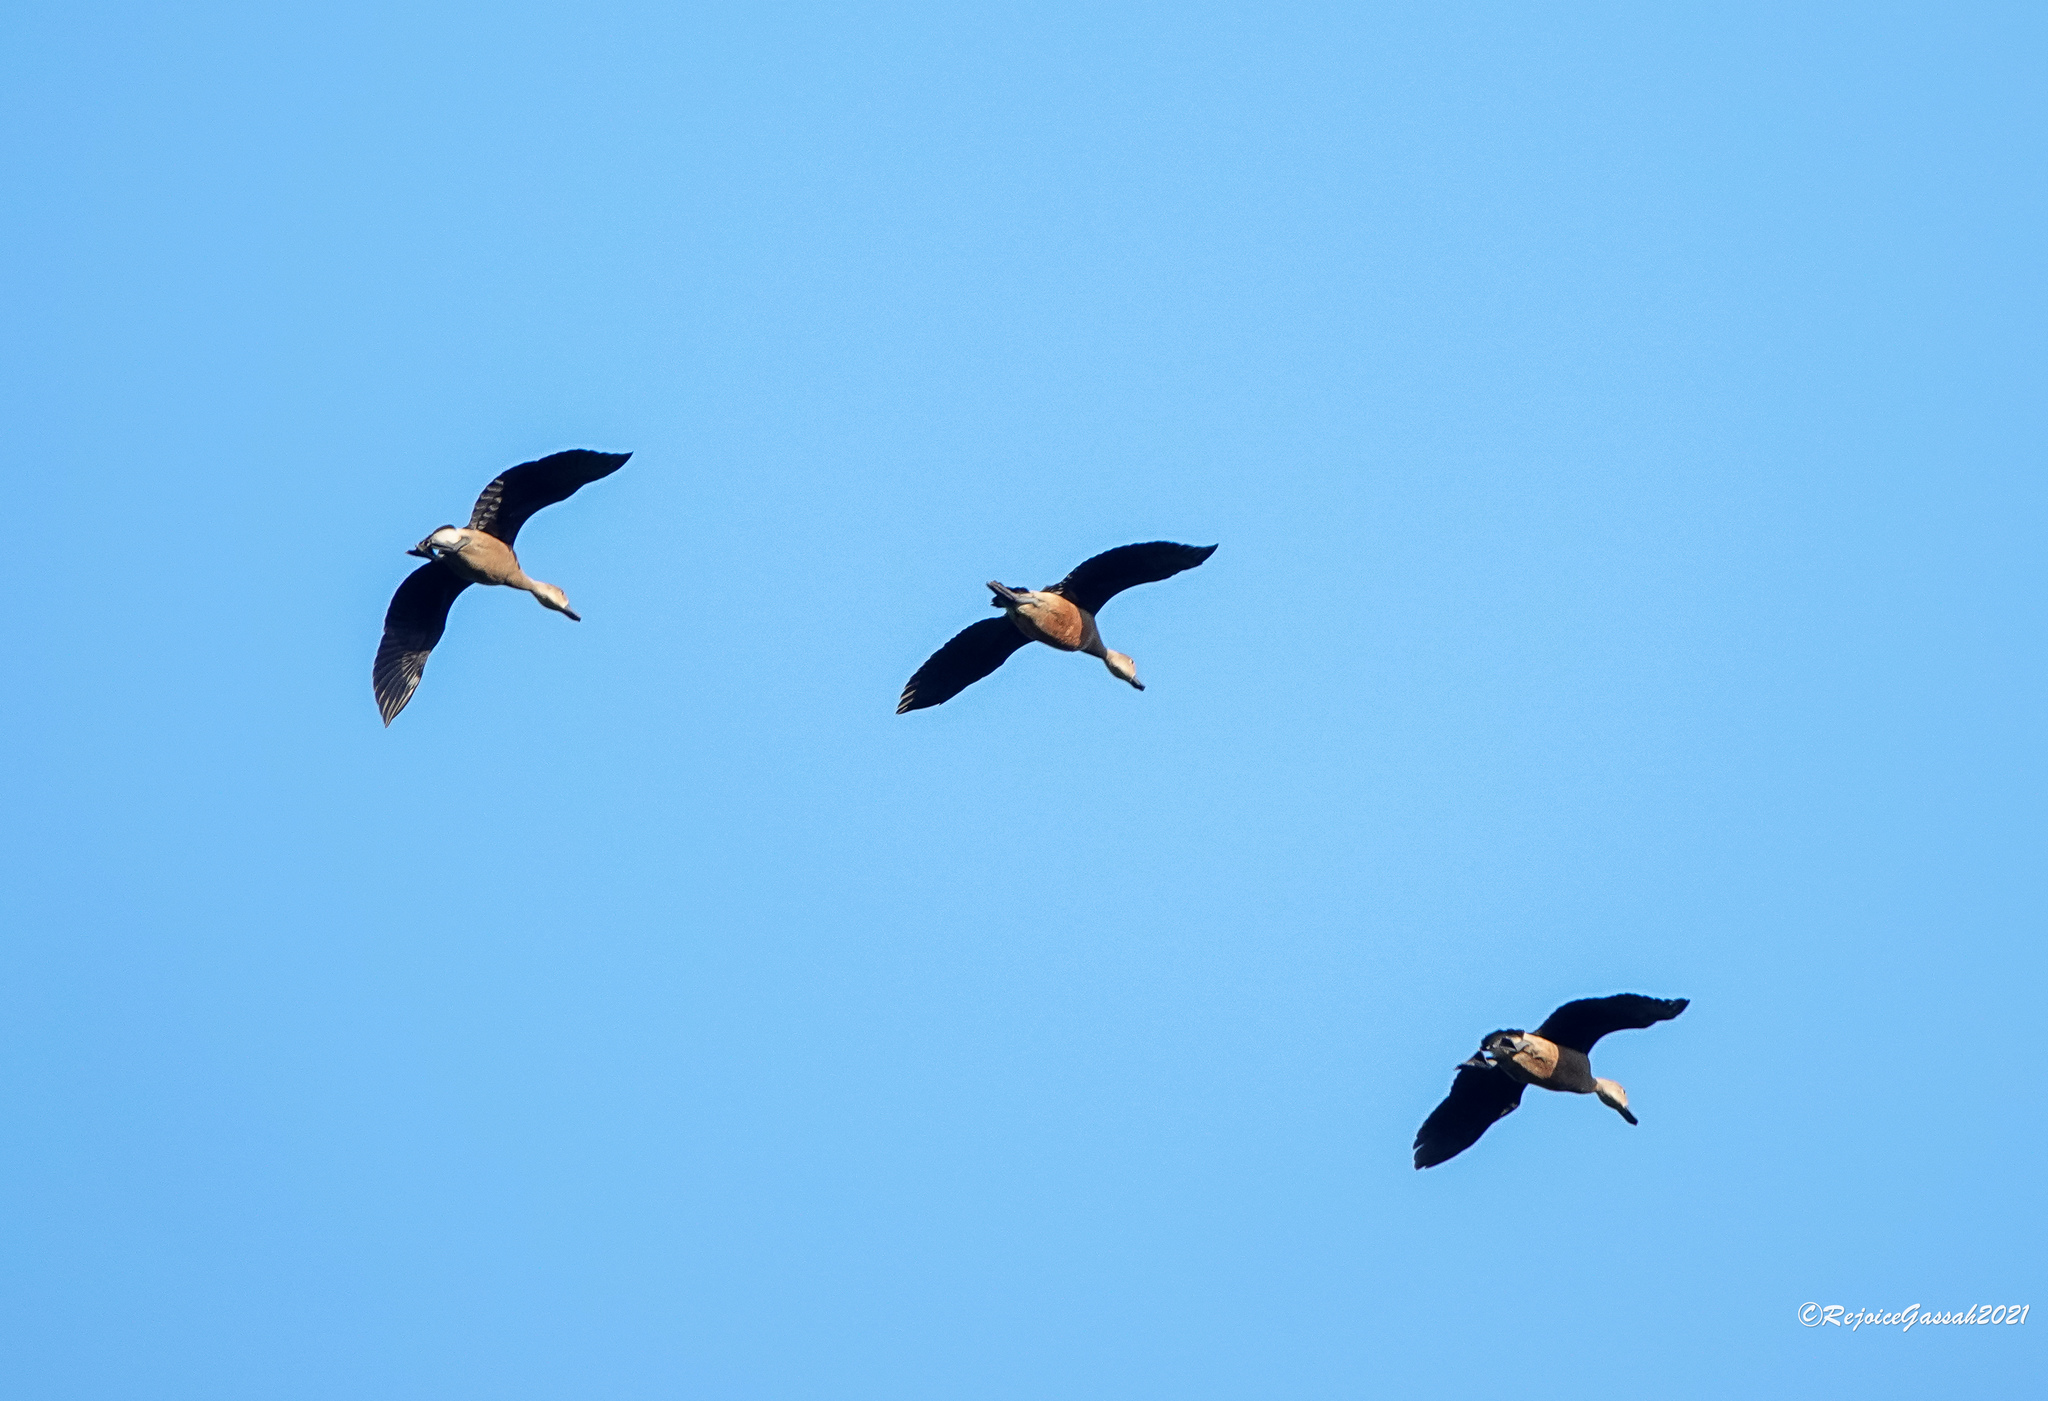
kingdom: Animalia
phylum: Chordata
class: Aves
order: Anseriformes
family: Anatidae
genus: Dendrocygna
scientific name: Dendrocygna javanica
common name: Lesser whistling-duck
